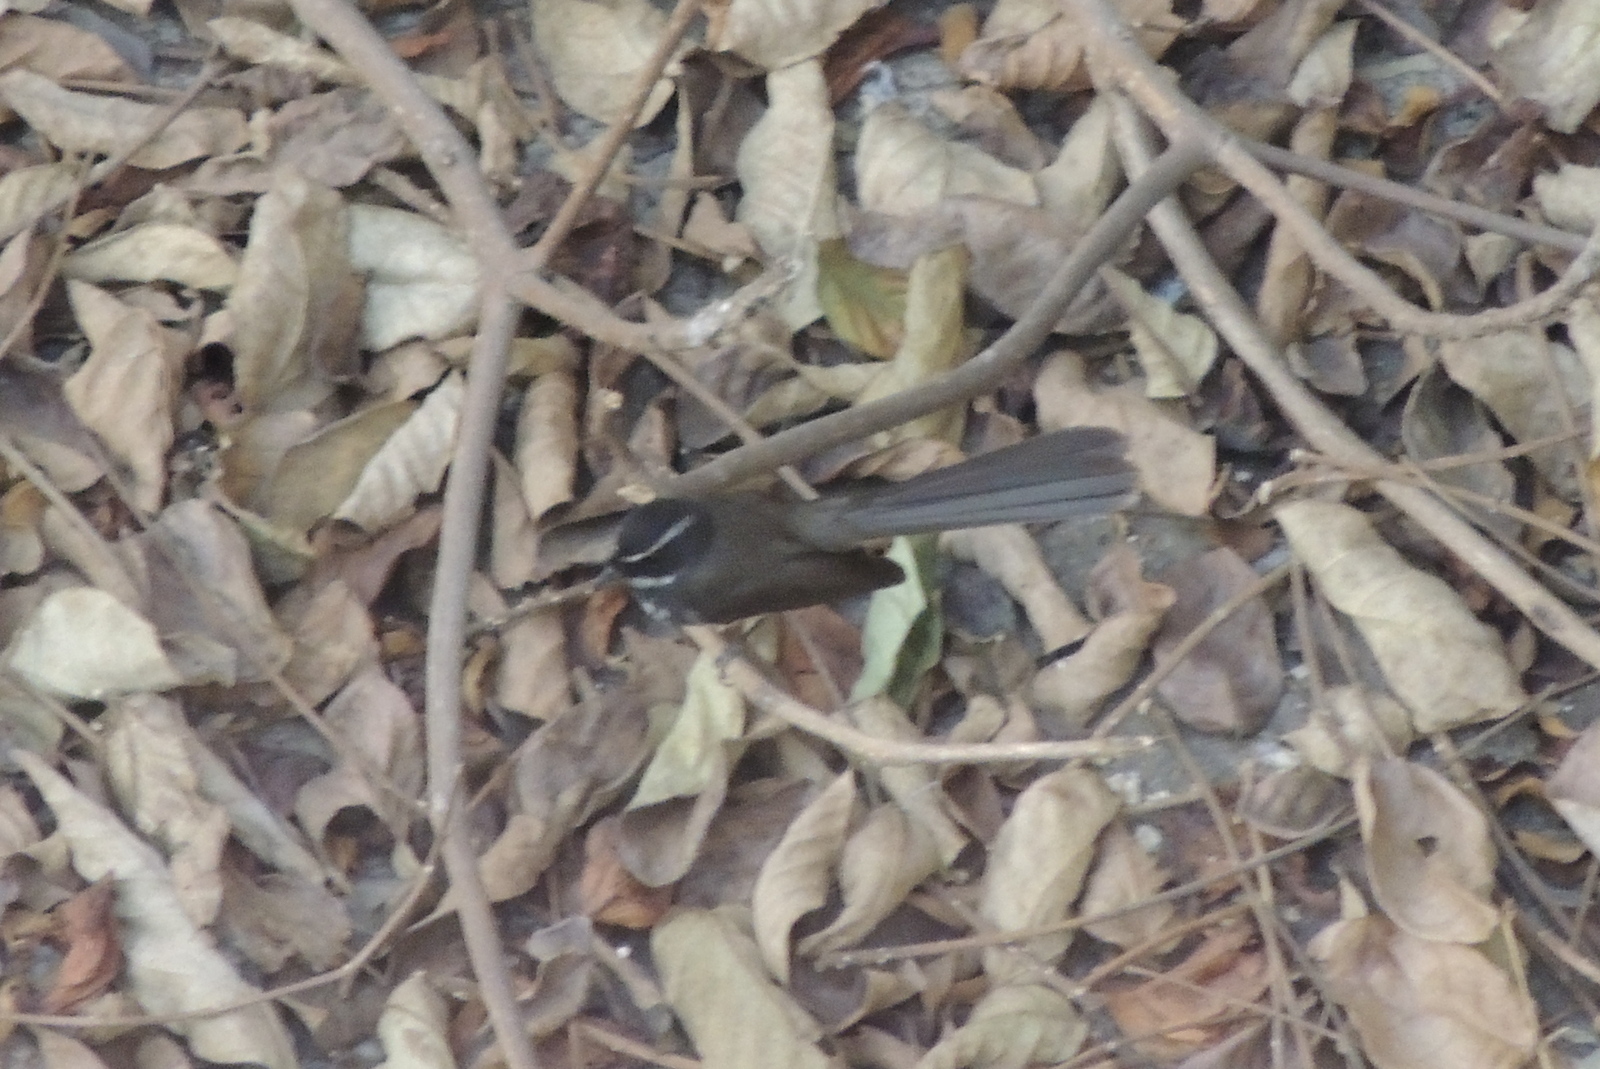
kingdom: Animalia
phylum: Chordata
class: Aves
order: Passeriformes
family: Rhipiduridae
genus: Rhipidura
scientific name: Rhipidura aureola
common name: White-browed fantail
